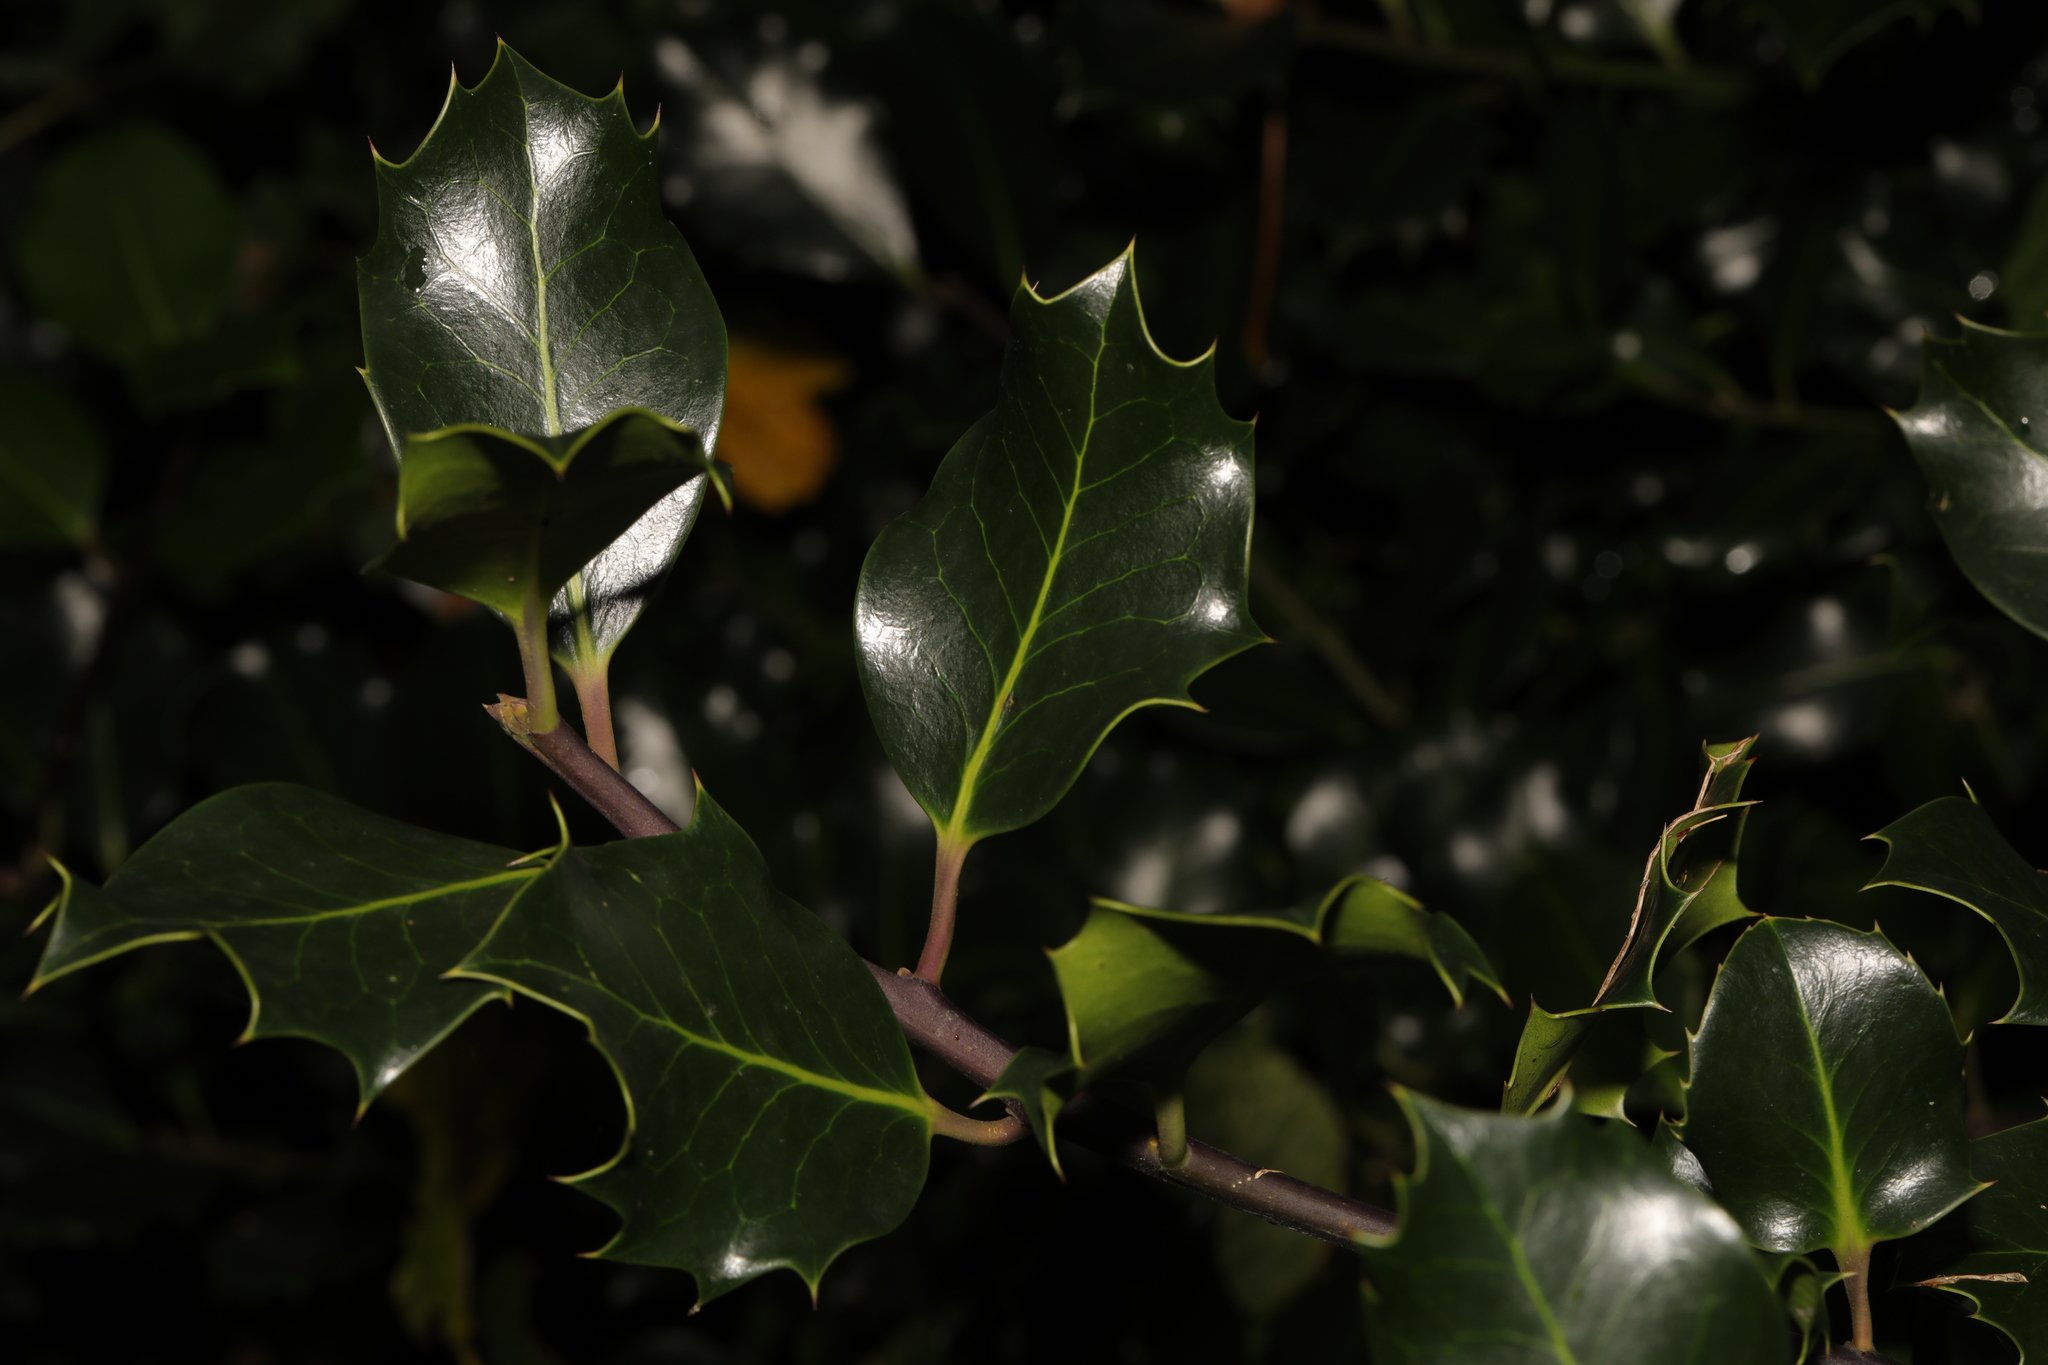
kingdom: Plantae
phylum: Tracheophyta
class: Magnoliopsida
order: Aquifoliales
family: Aquifoliaceae
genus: Ilex
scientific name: Ilex aquifolium
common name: English holly
